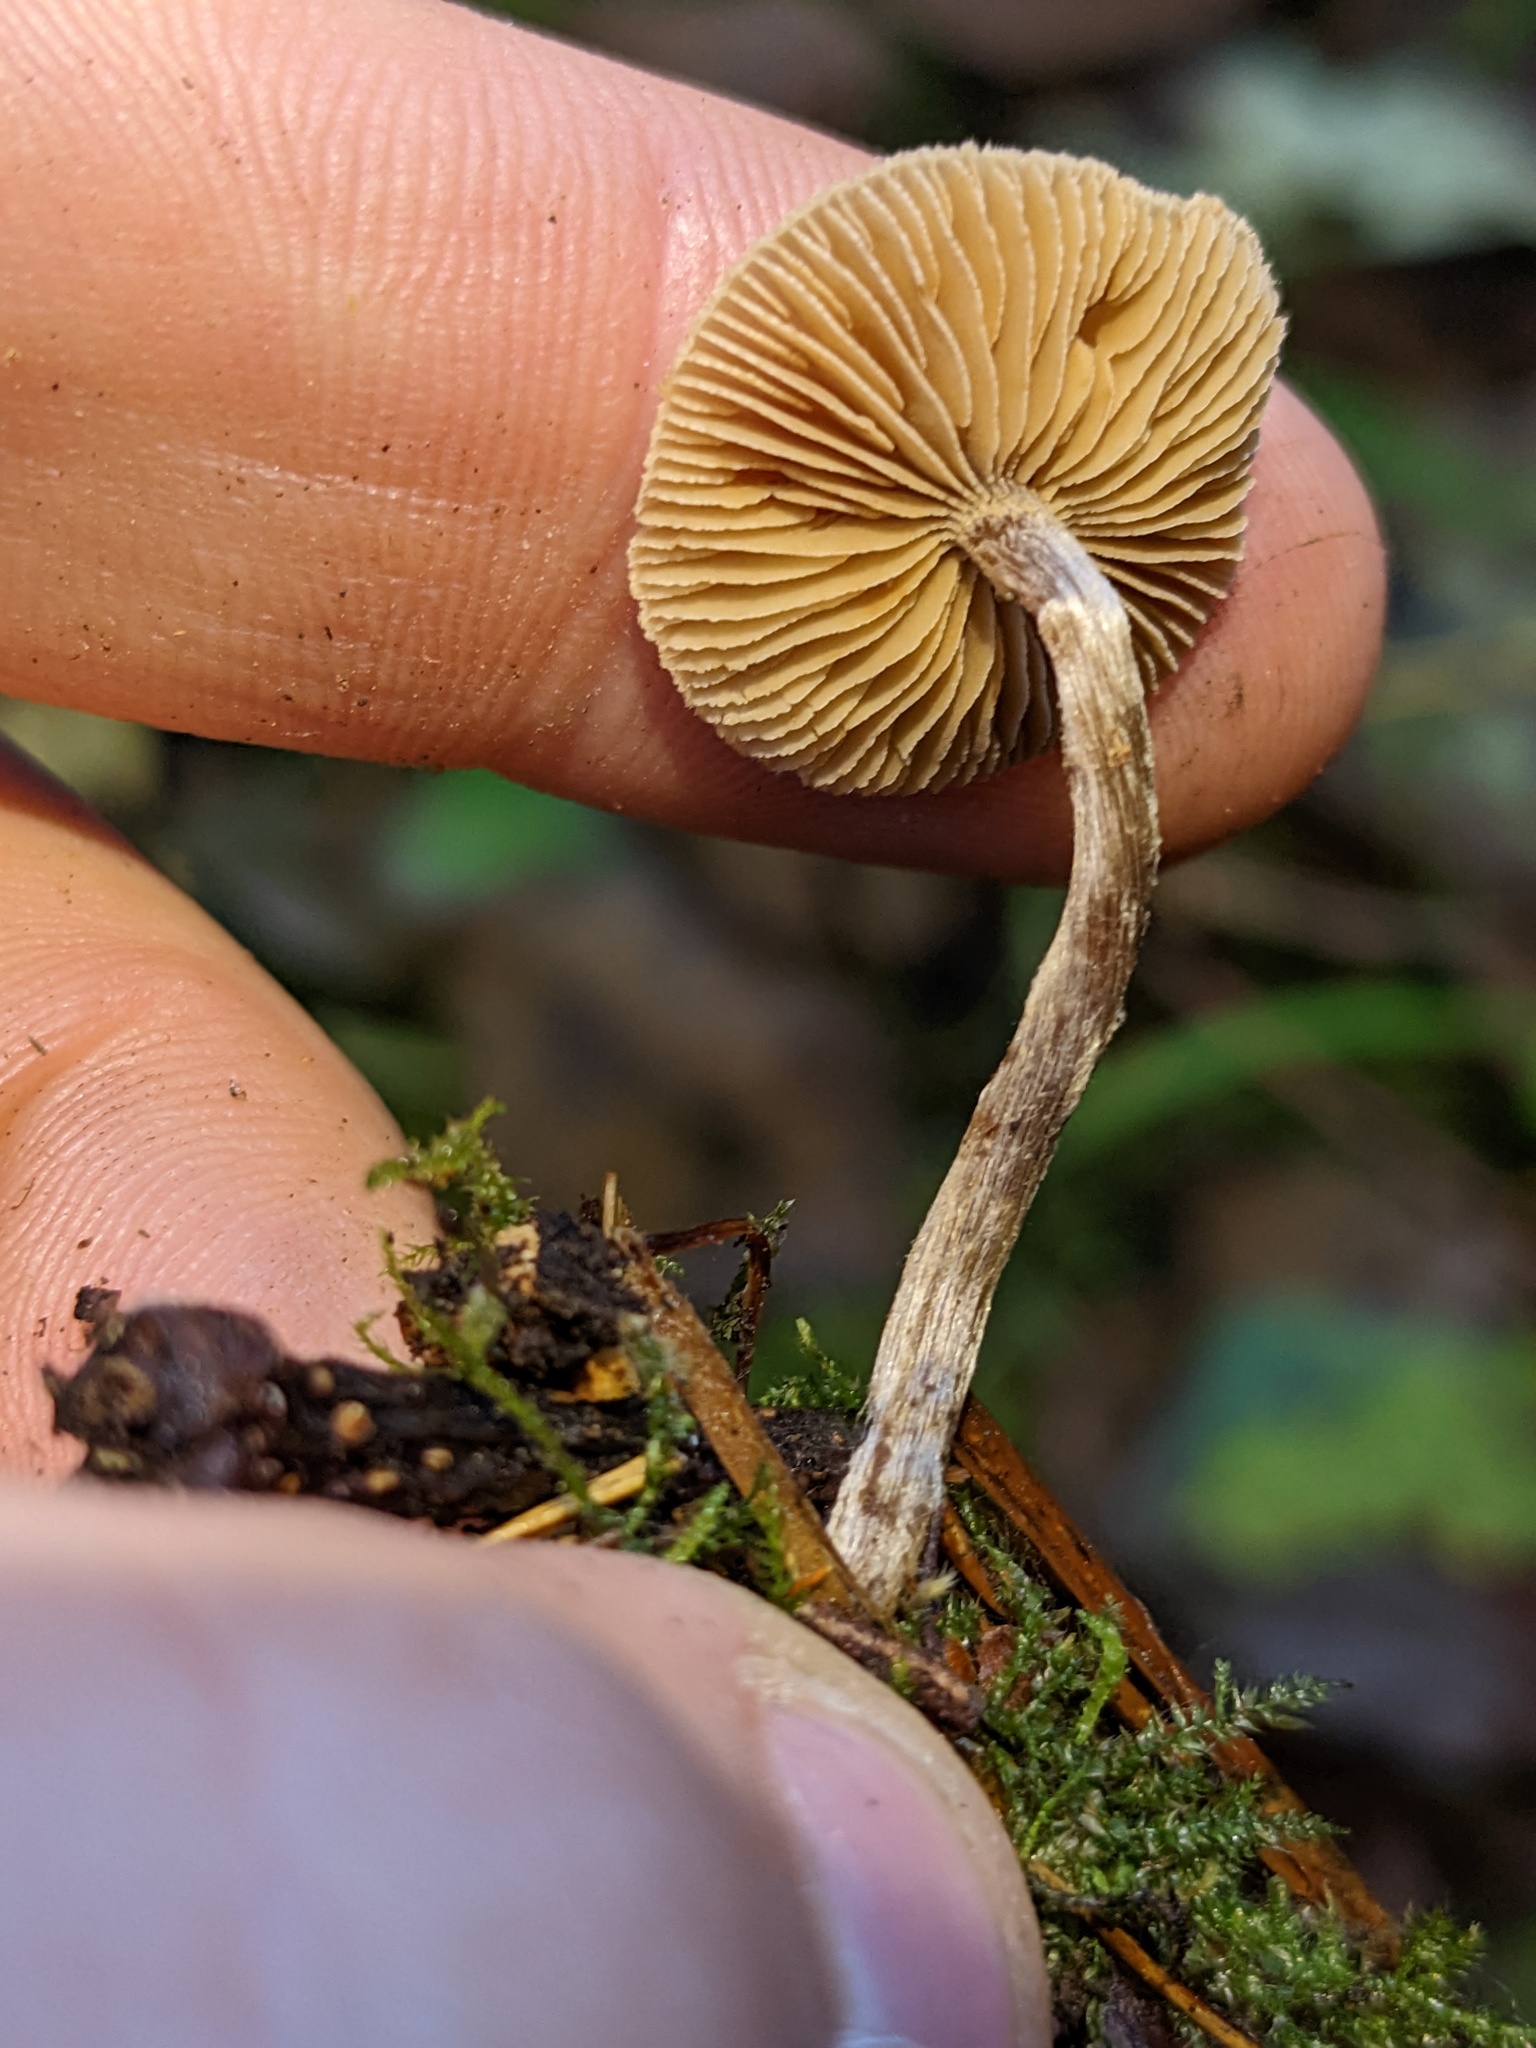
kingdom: Fungi
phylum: Basidiomycota
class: Agaricomycetes
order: Agaricales
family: Hymenogastraceae
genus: Naucoria
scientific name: Naucoria escharioides
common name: Ochre aldercap
